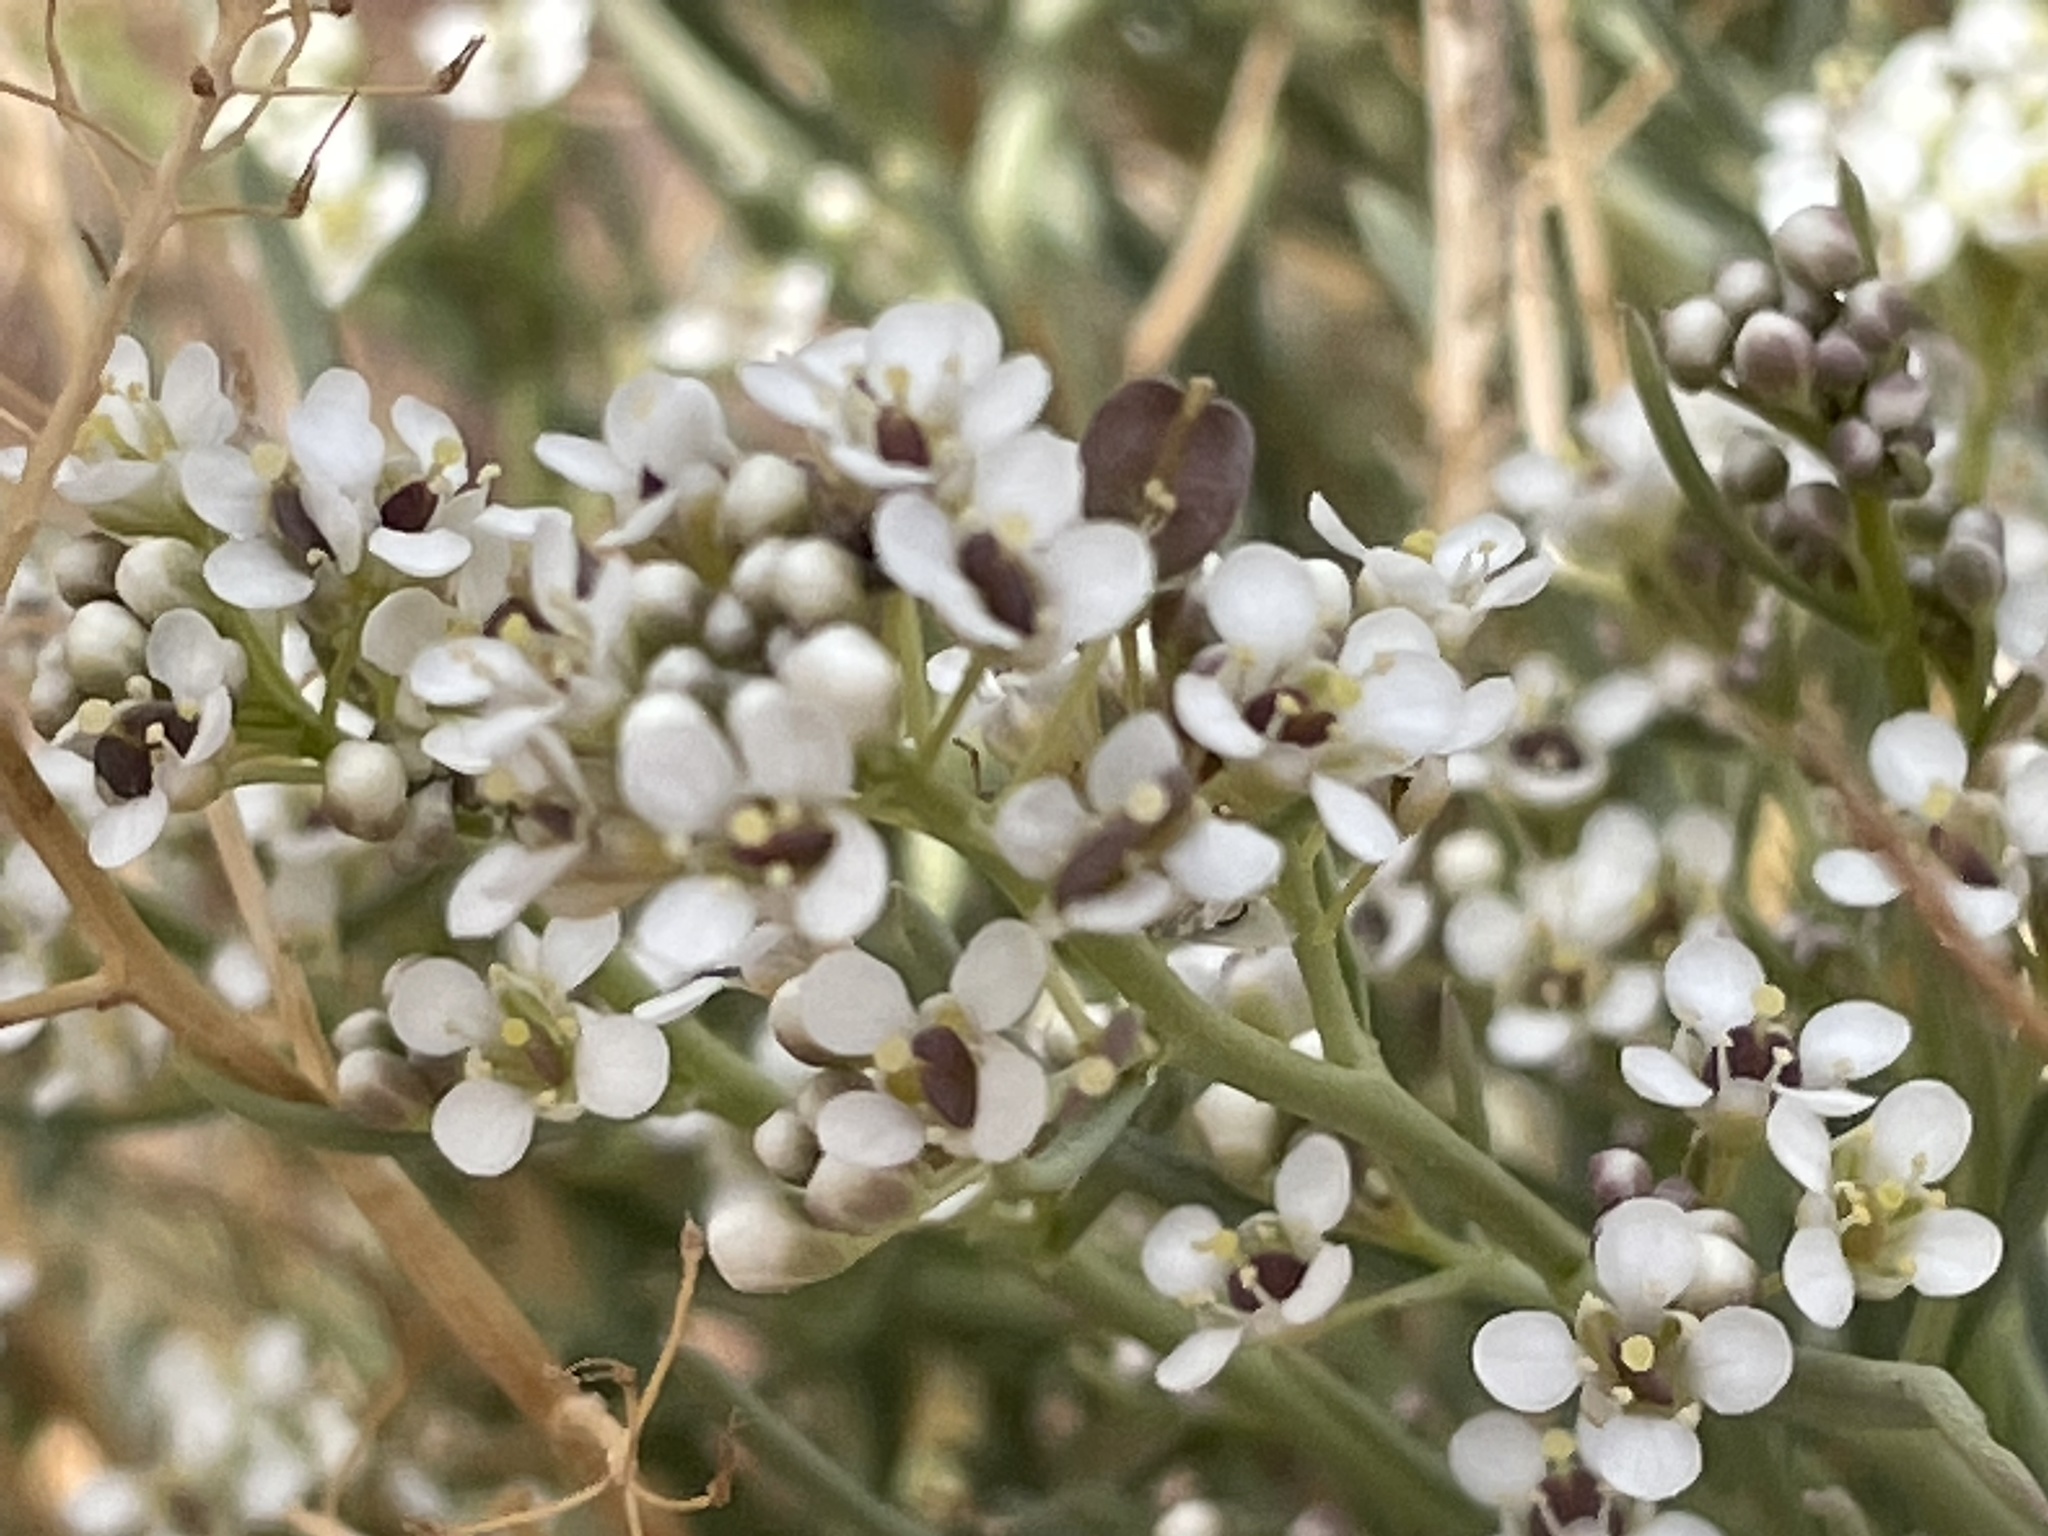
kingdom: Plantae
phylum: Tracheophyta
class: Magnoliopsida
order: Brassicales
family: Brassicaceae
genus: Lepidium
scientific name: Lepidium fremontii
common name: Fremont's pepperwort
